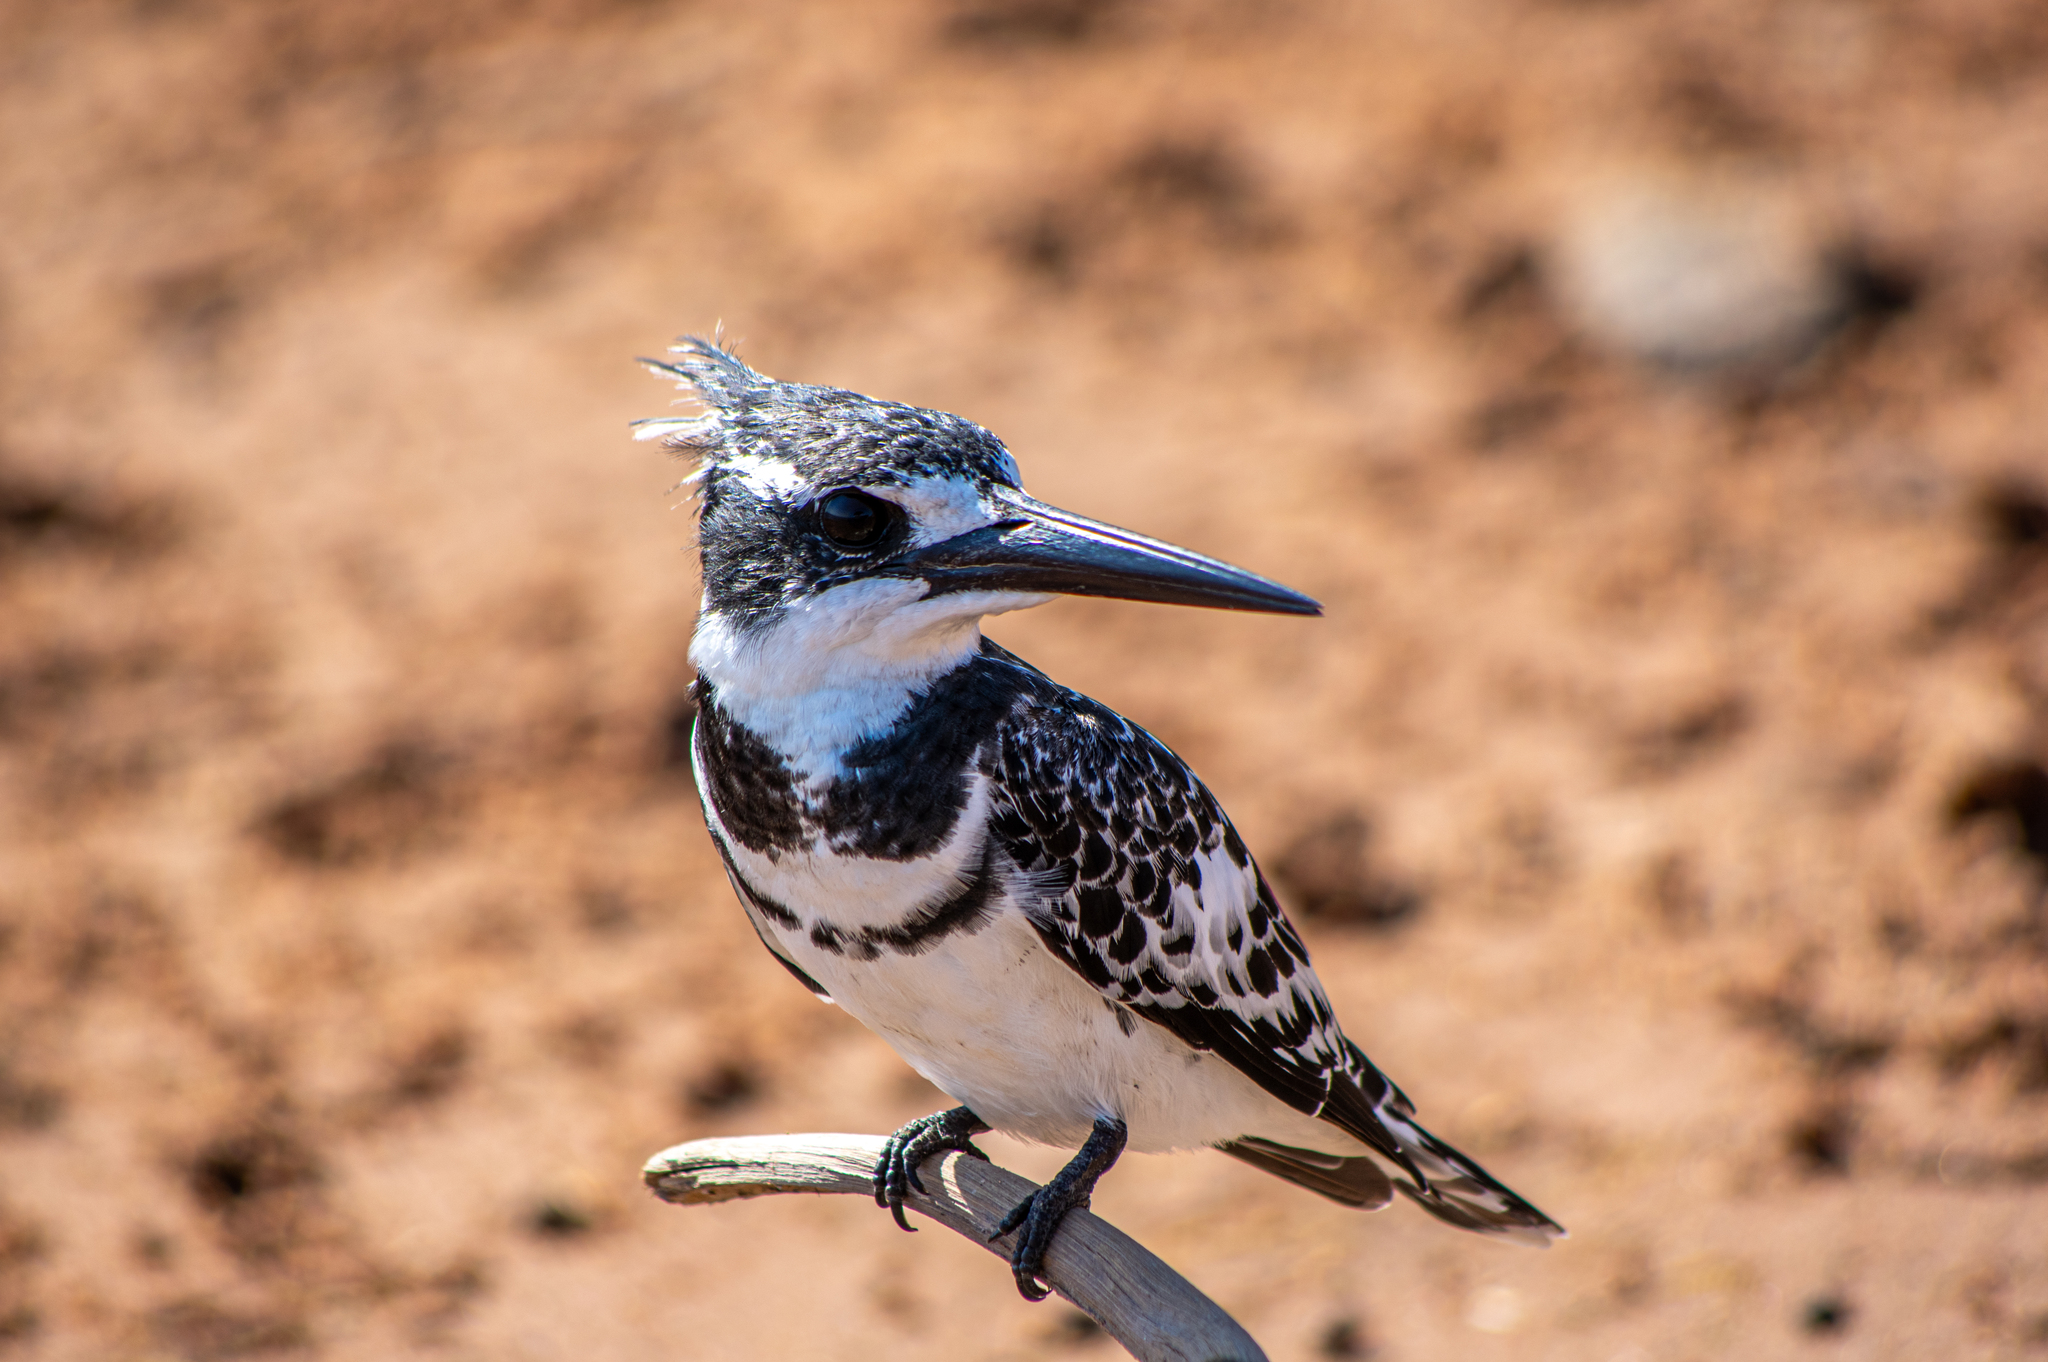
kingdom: Animalia
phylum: Chordata
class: Aves
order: Coraciiformes
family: Alcedinidae
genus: Ceryle
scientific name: Ceryle rudis
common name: Pied kingfisher
